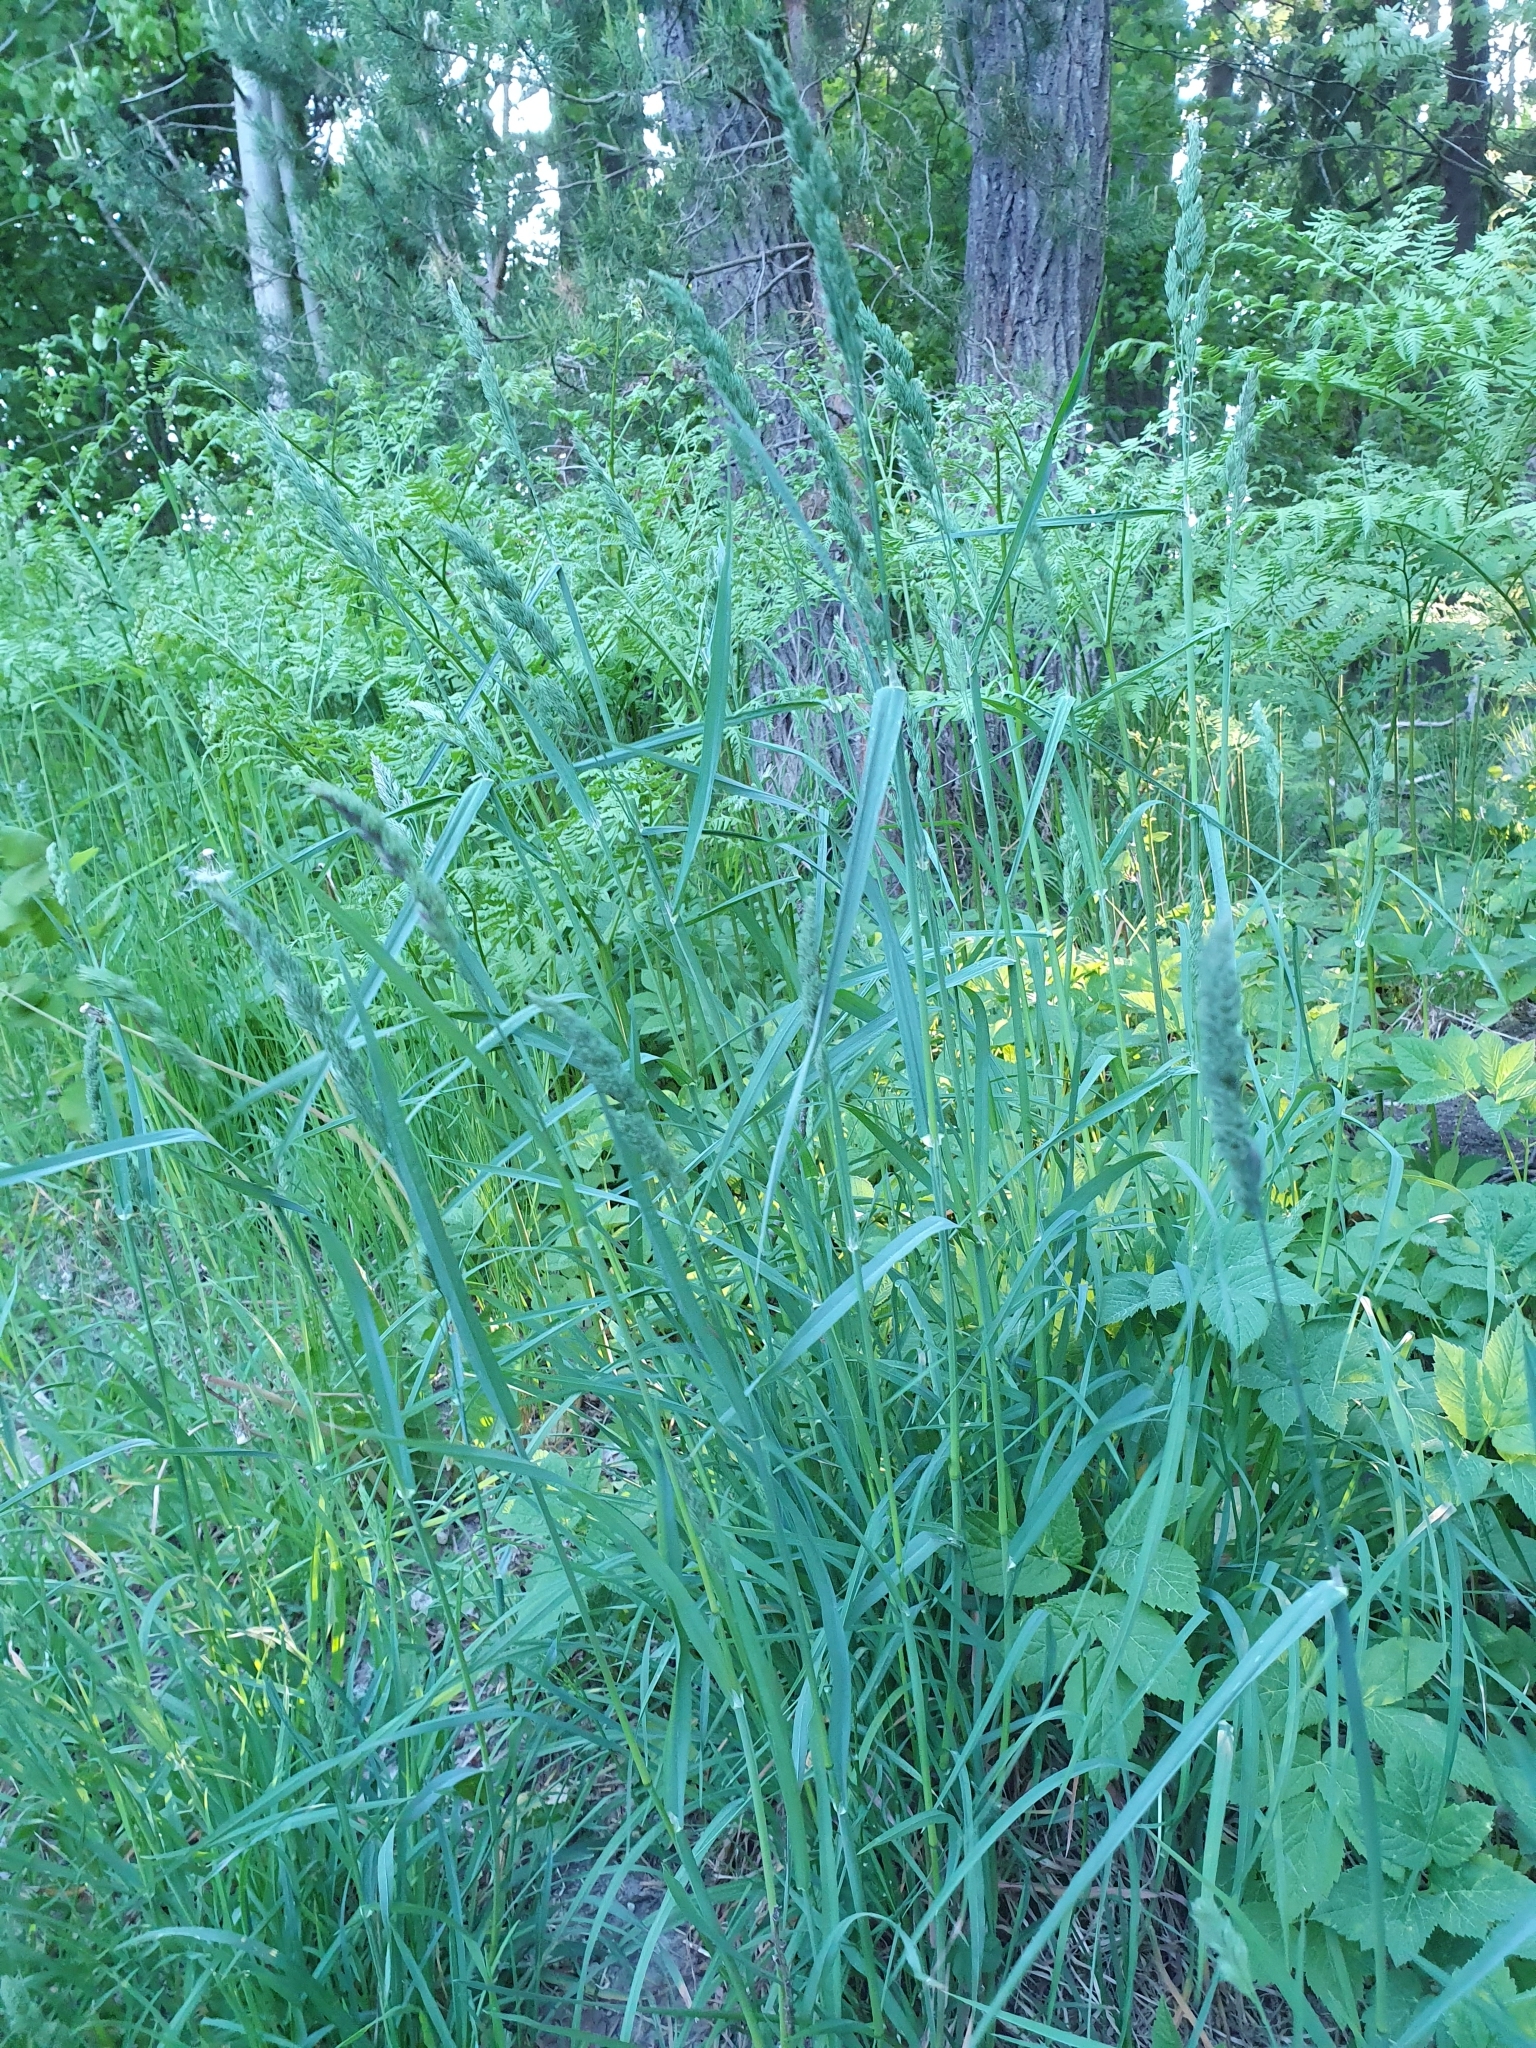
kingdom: Plantae
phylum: Tracheophyta
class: Liliopsida
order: Poales
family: Poaceae
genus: Dactylis
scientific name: Dactylis glomerata
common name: Orchardgrass
